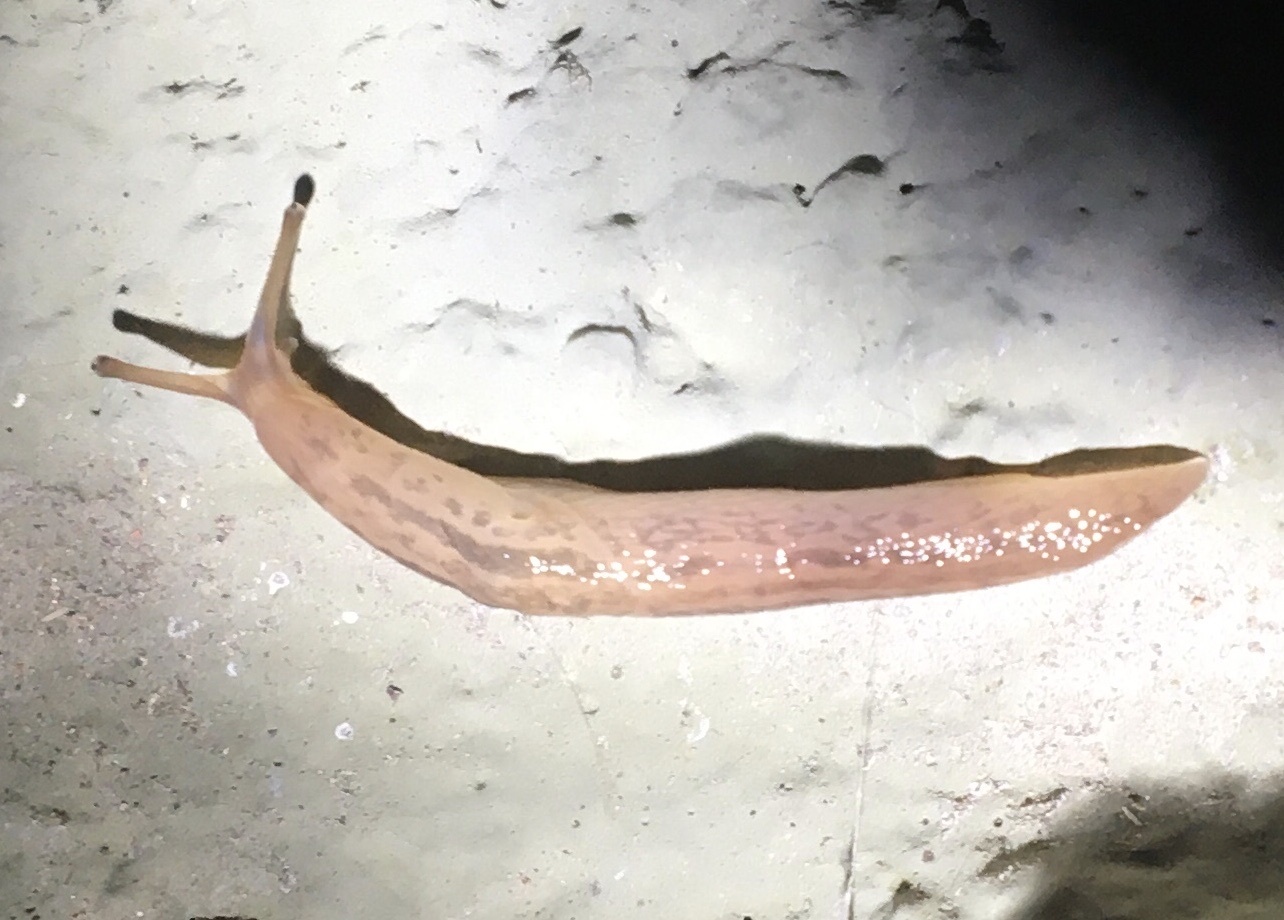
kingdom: Animalia
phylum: Mollusca
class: Gastropoda
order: Stylommatophora
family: Limacidae
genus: Ambigolimax
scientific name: Ambigolimax
